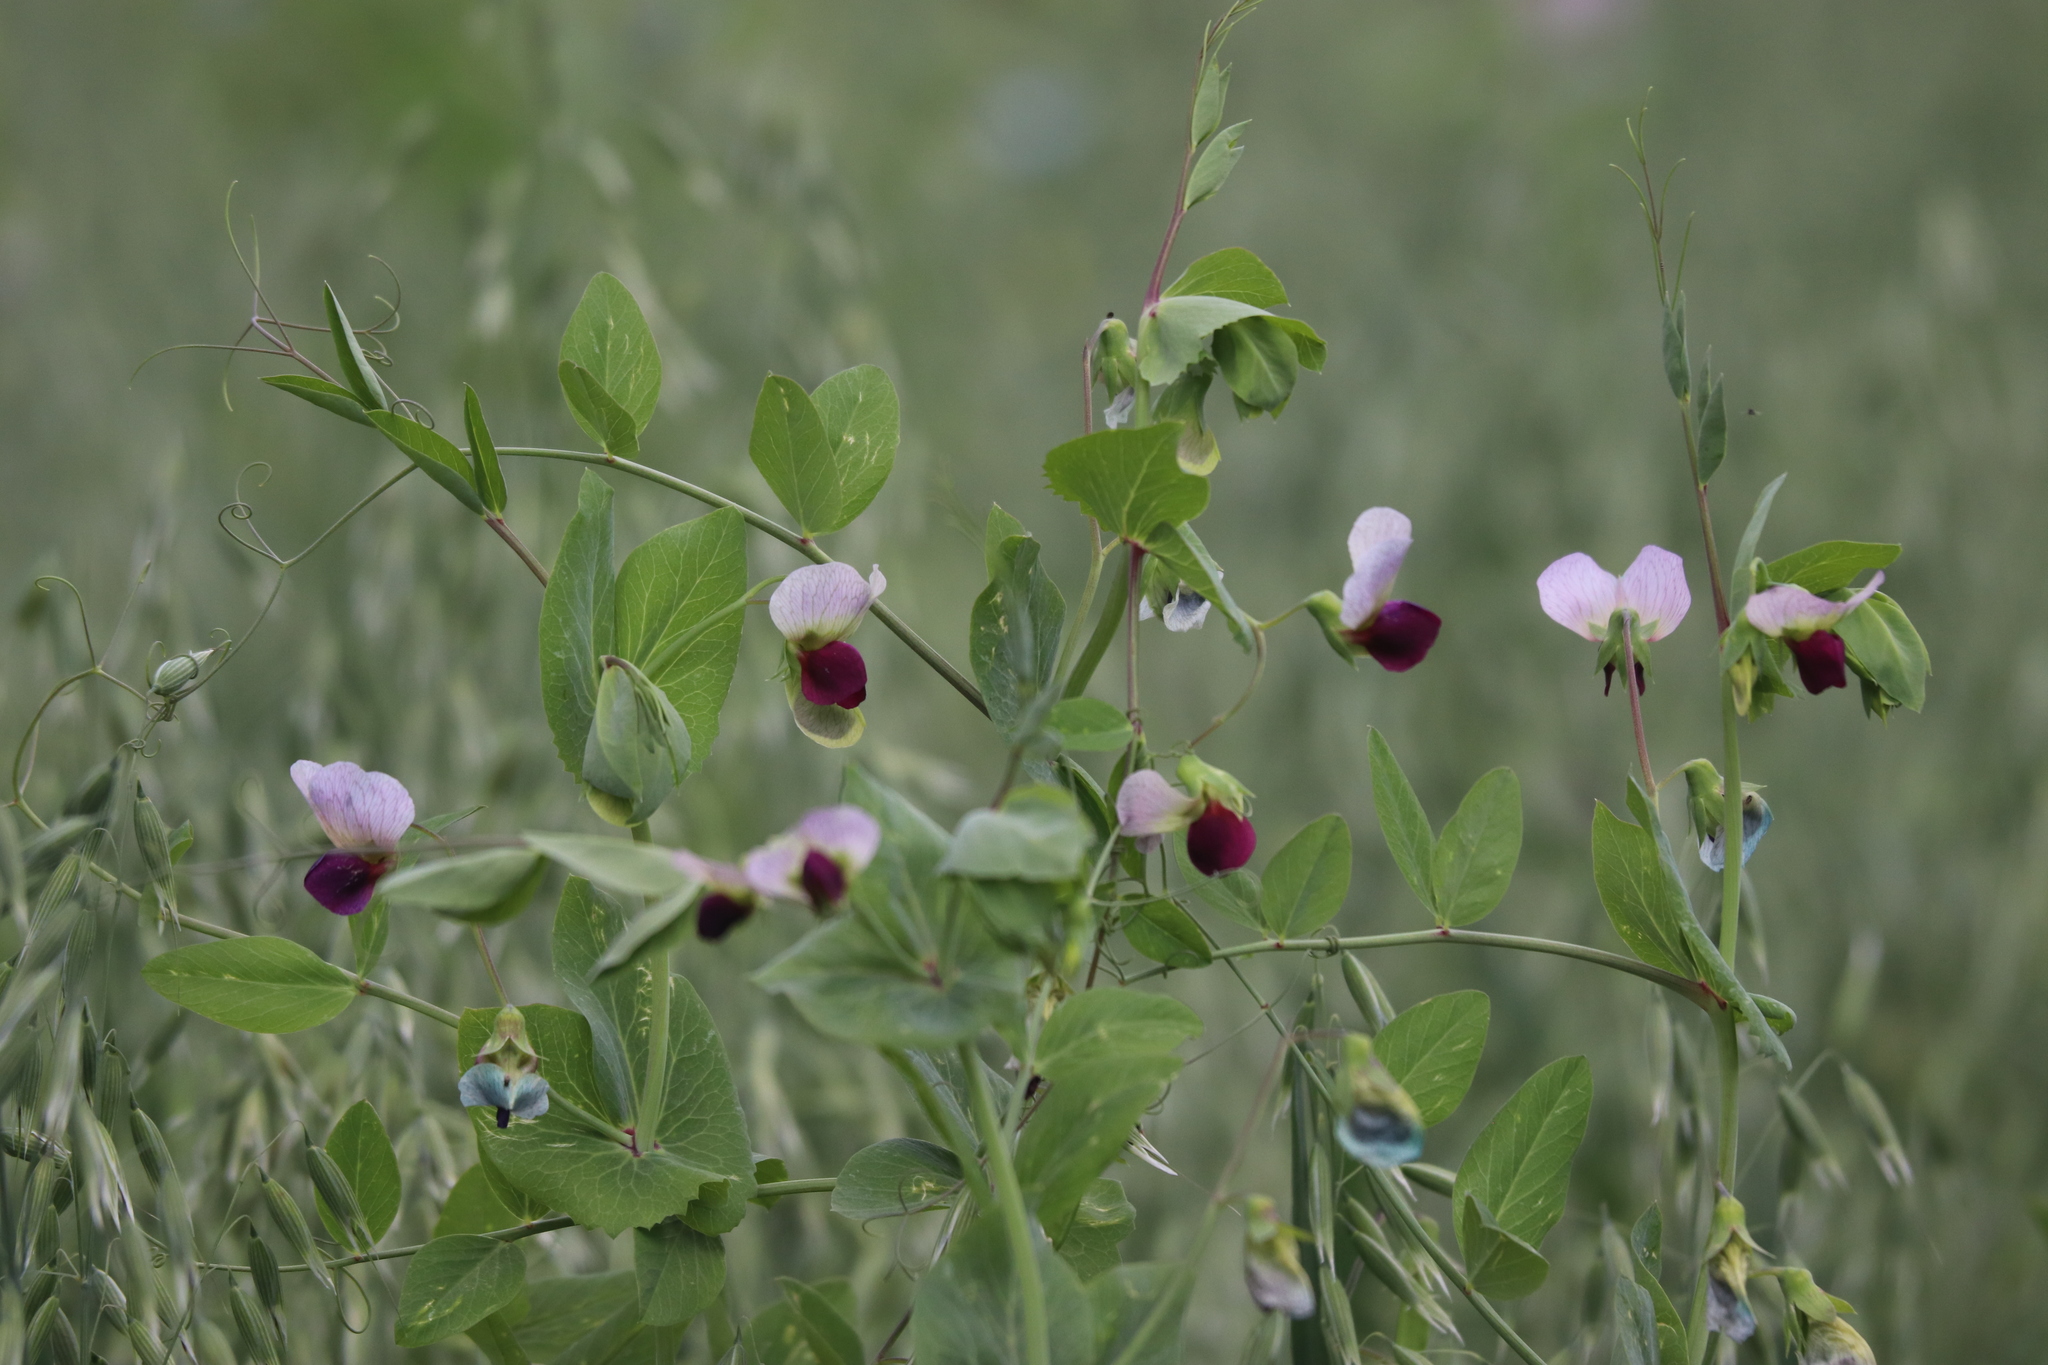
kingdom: Plantae
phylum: Tracheophyta
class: Magnoliopsida
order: Fabales
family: Fabaceae
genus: Lathyrus
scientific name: Lathyrus oleraceus
